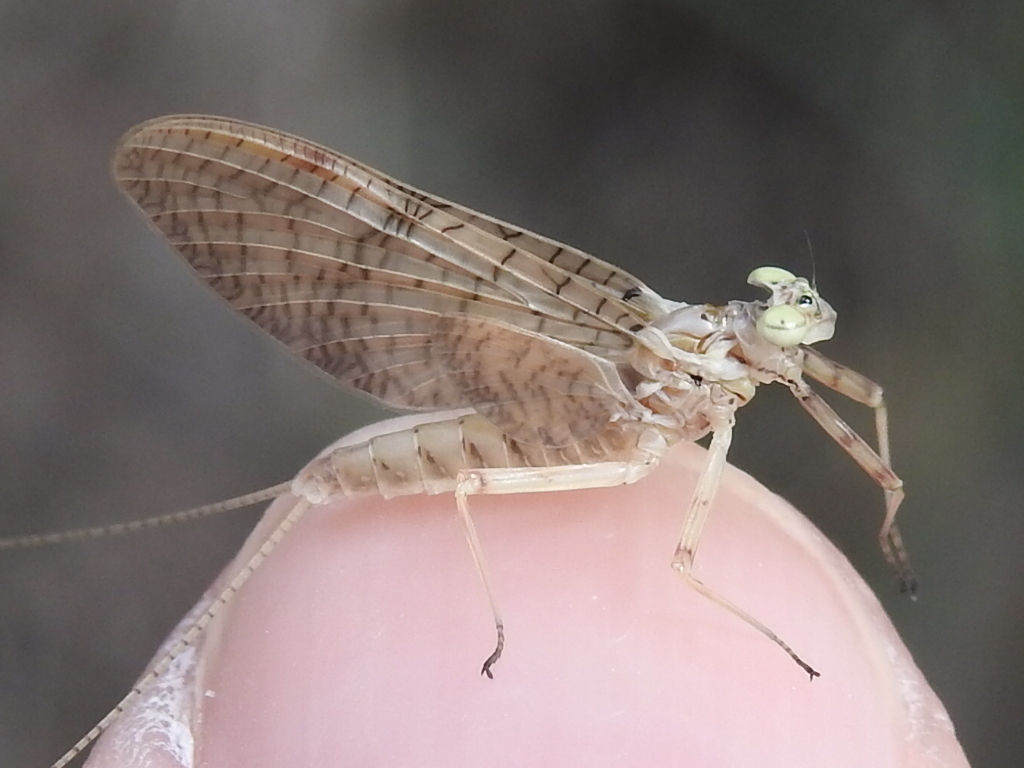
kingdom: Animalia
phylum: Arthropoda
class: Insecta
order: Ephemeroptera
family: Heptageniidae
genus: Stenonema
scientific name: Stenonema femoratum
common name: Dark cahill
